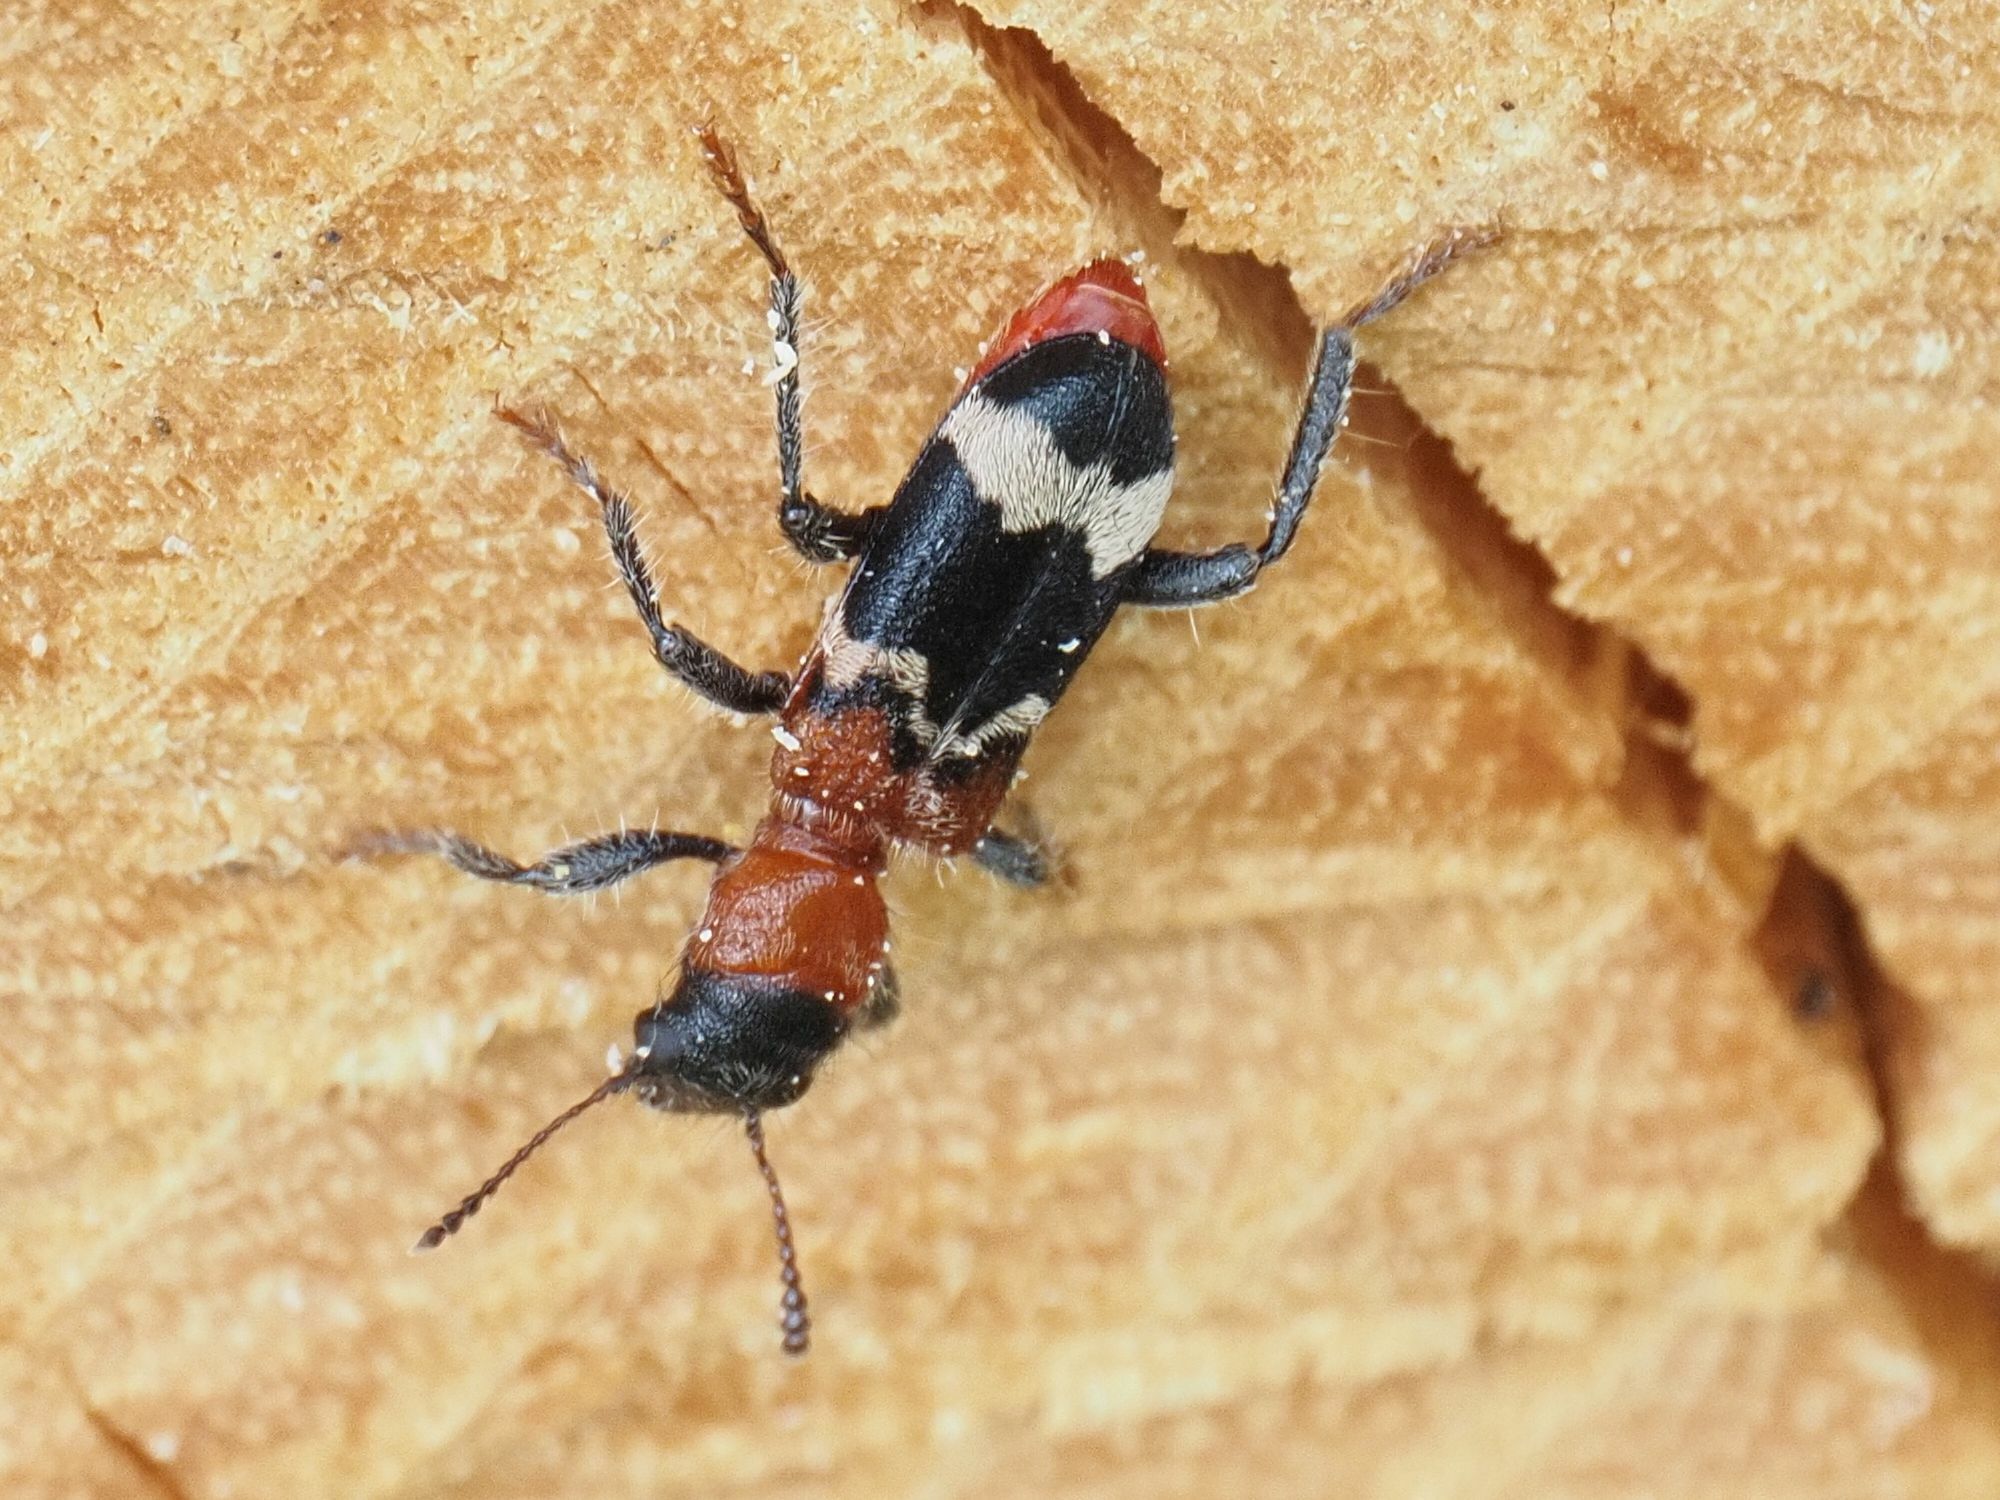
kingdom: Animalia
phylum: Arthropoda
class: Insecta
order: Coleoptera
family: Cleridae
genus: Thanasimus
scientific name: Thanasimus formicarius
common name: Ant beetle
